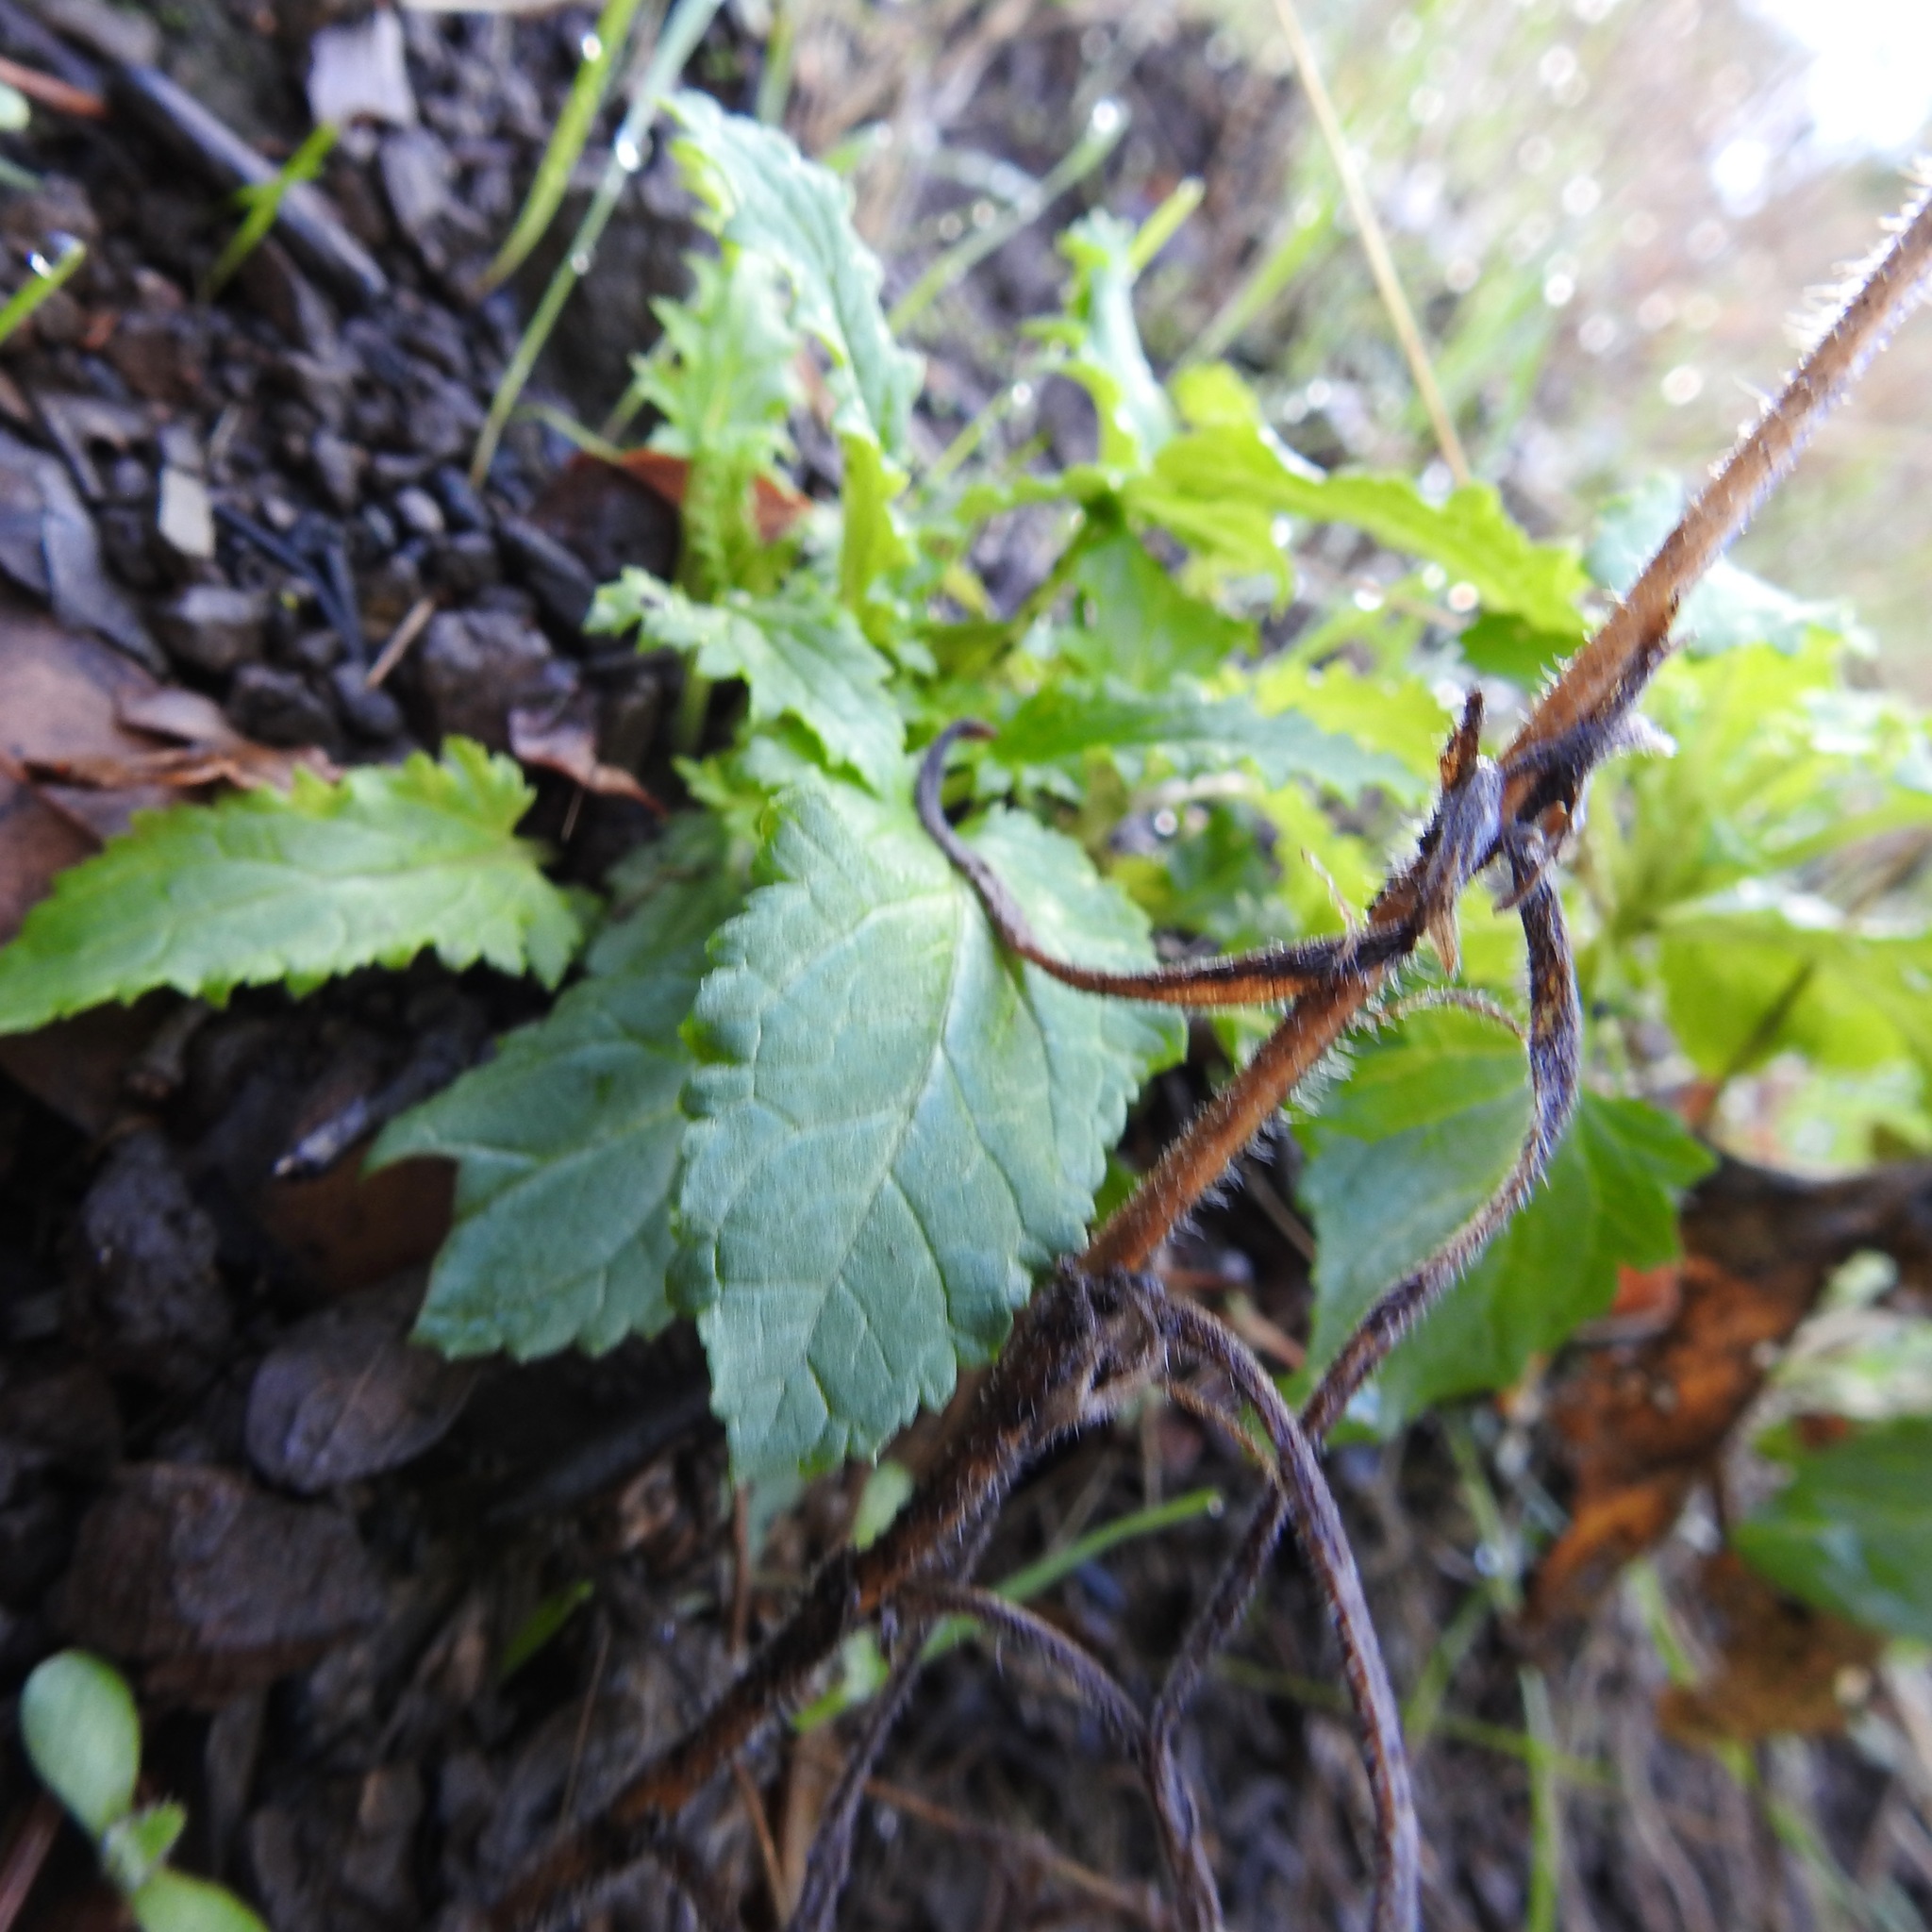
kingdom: Plantae
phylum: Tracheophyta
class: Magnoliopsida
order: Lamiales
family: Scrophulariaceae
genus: Scrophularia
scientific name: Scrophularia californica
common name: California figwort
